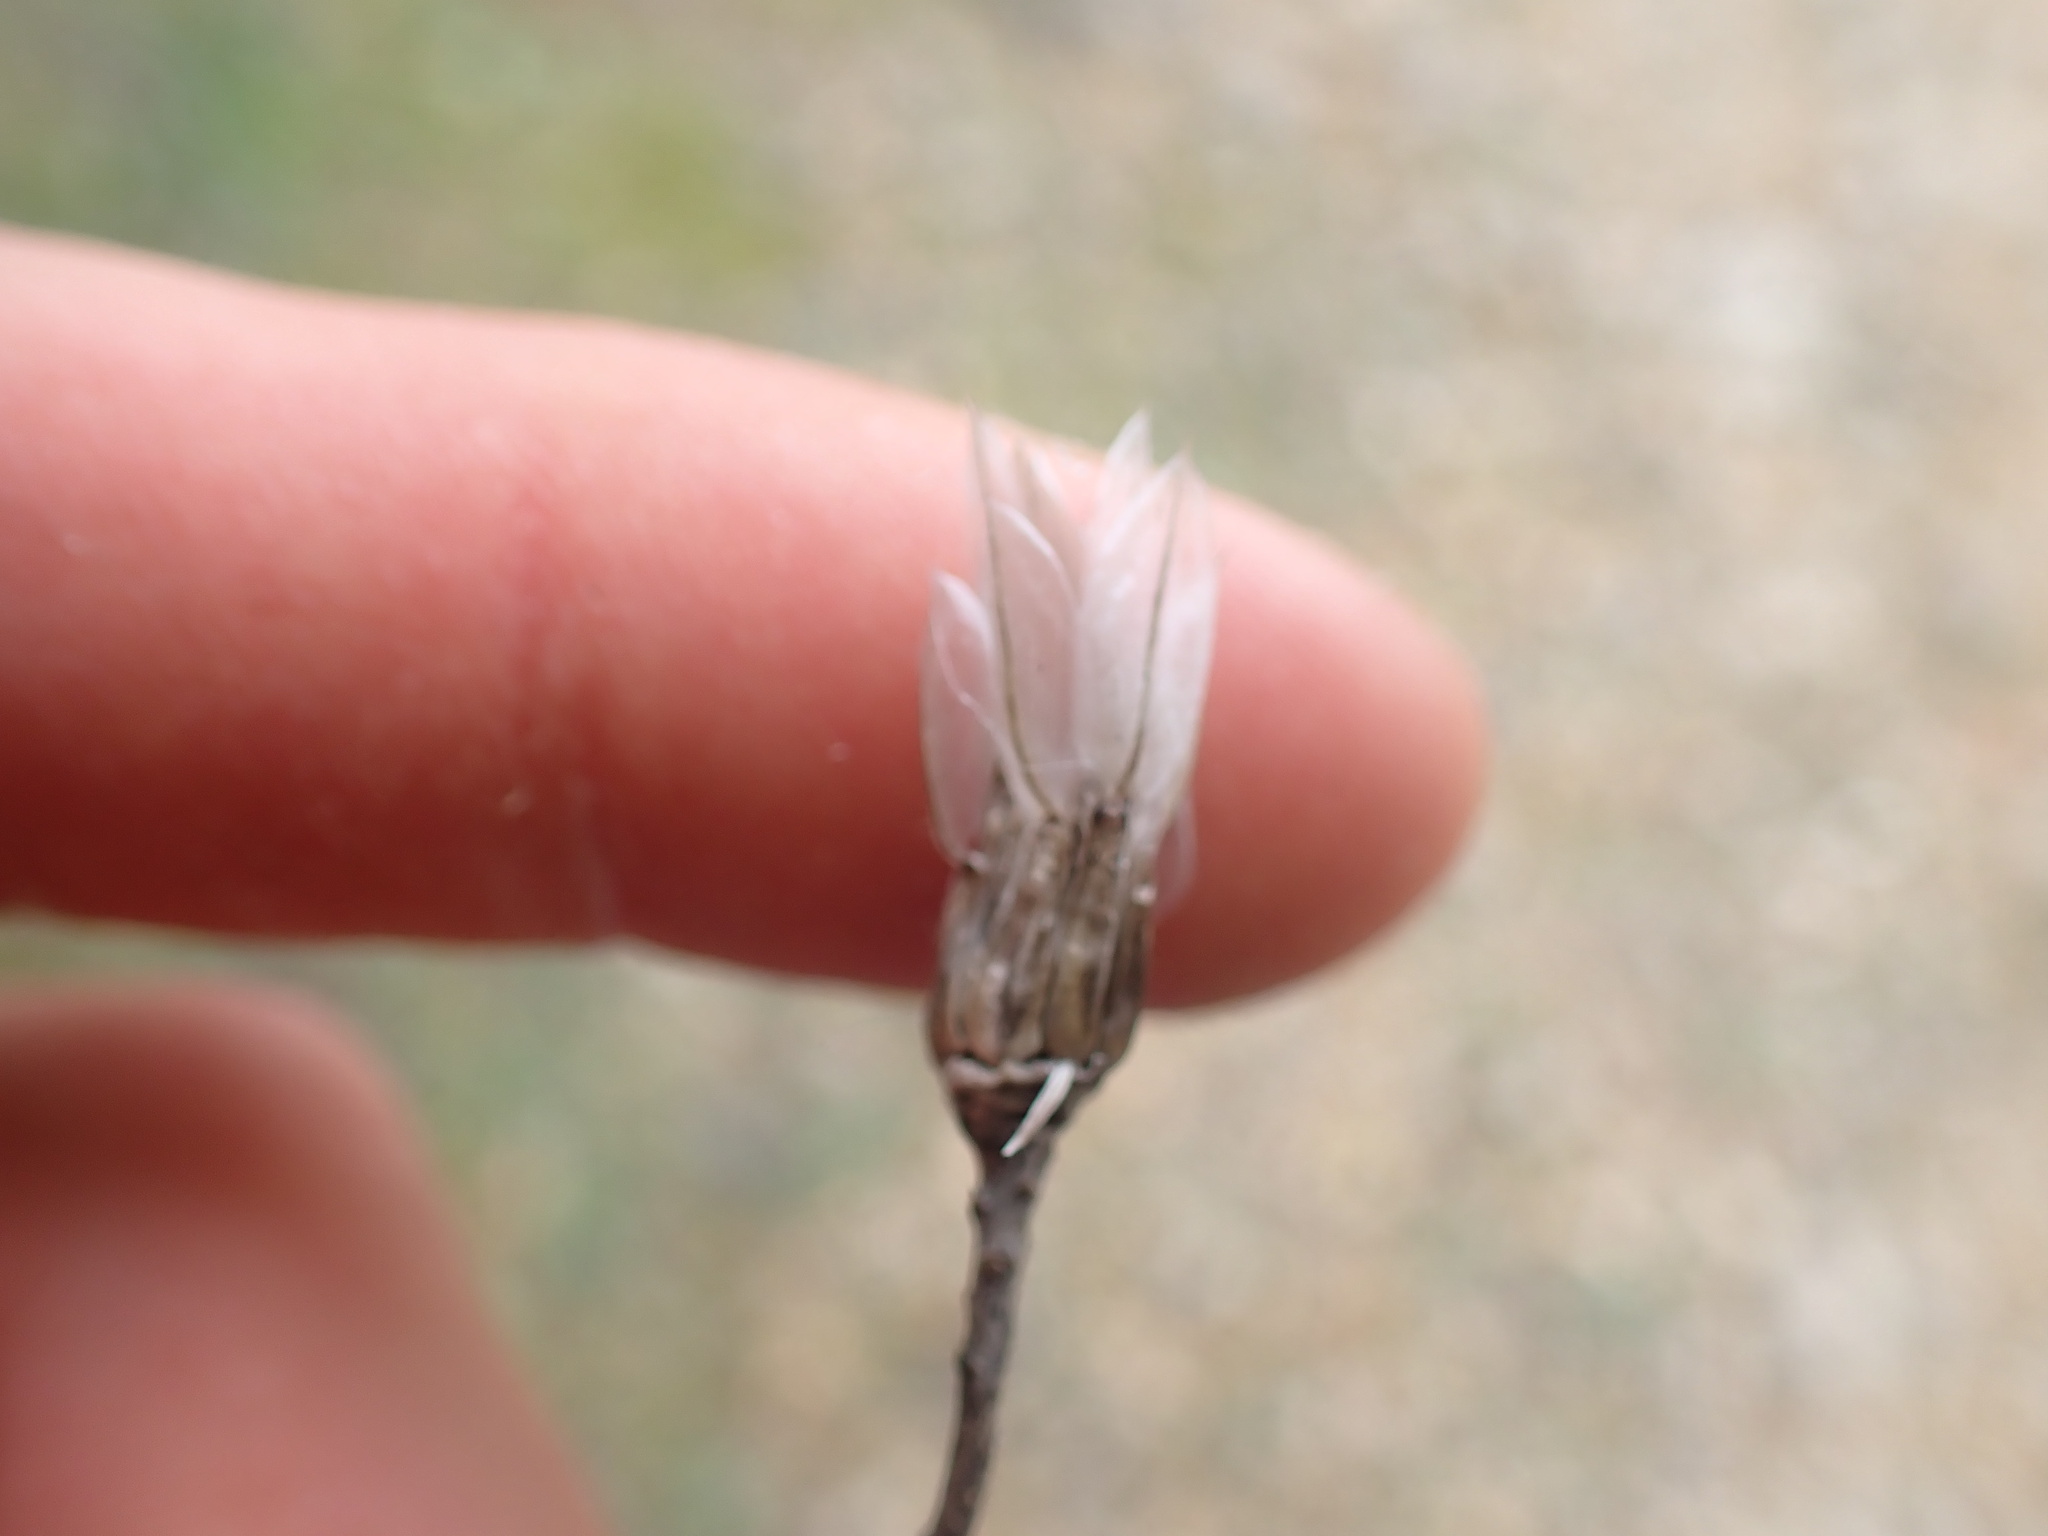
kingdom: Plantae
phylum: Tracheophyta
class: Magnoliopsida
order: Asterales
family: Asteraceae
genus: Catananche
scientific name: Catananche caerulea
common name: Blue cupidone
